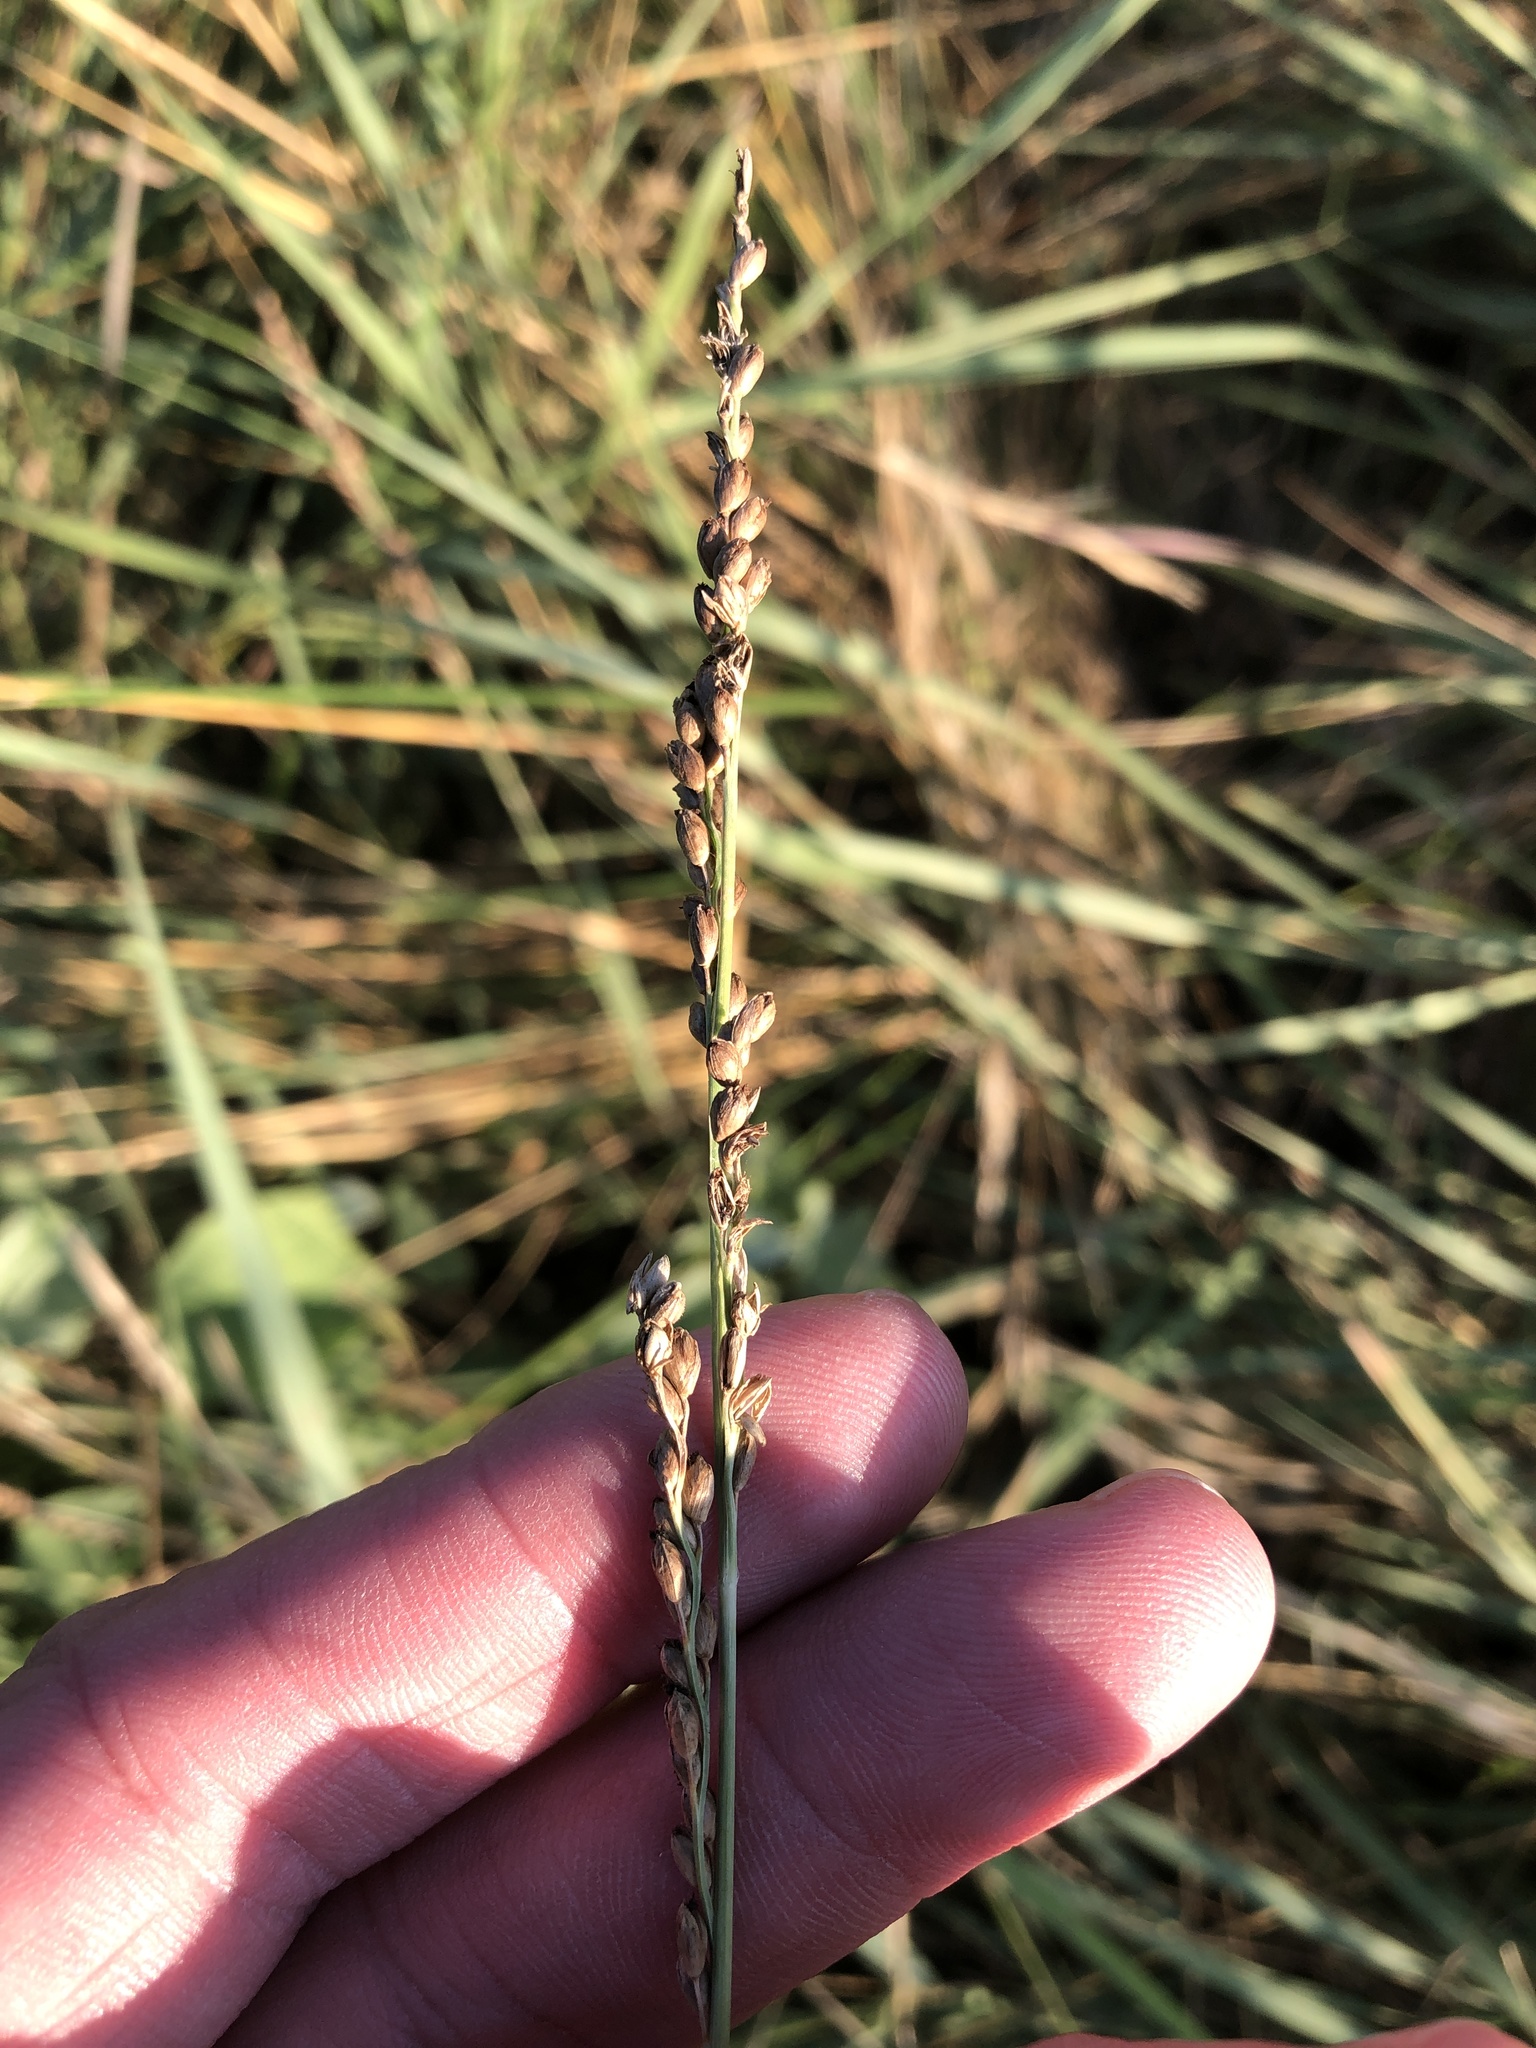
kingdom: Plantae
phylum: Tracheophyta
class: Liliopsida
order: Poales
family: Poaceae
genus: Hopia
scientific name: Hopia obtusa
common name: Vine-mesquite
